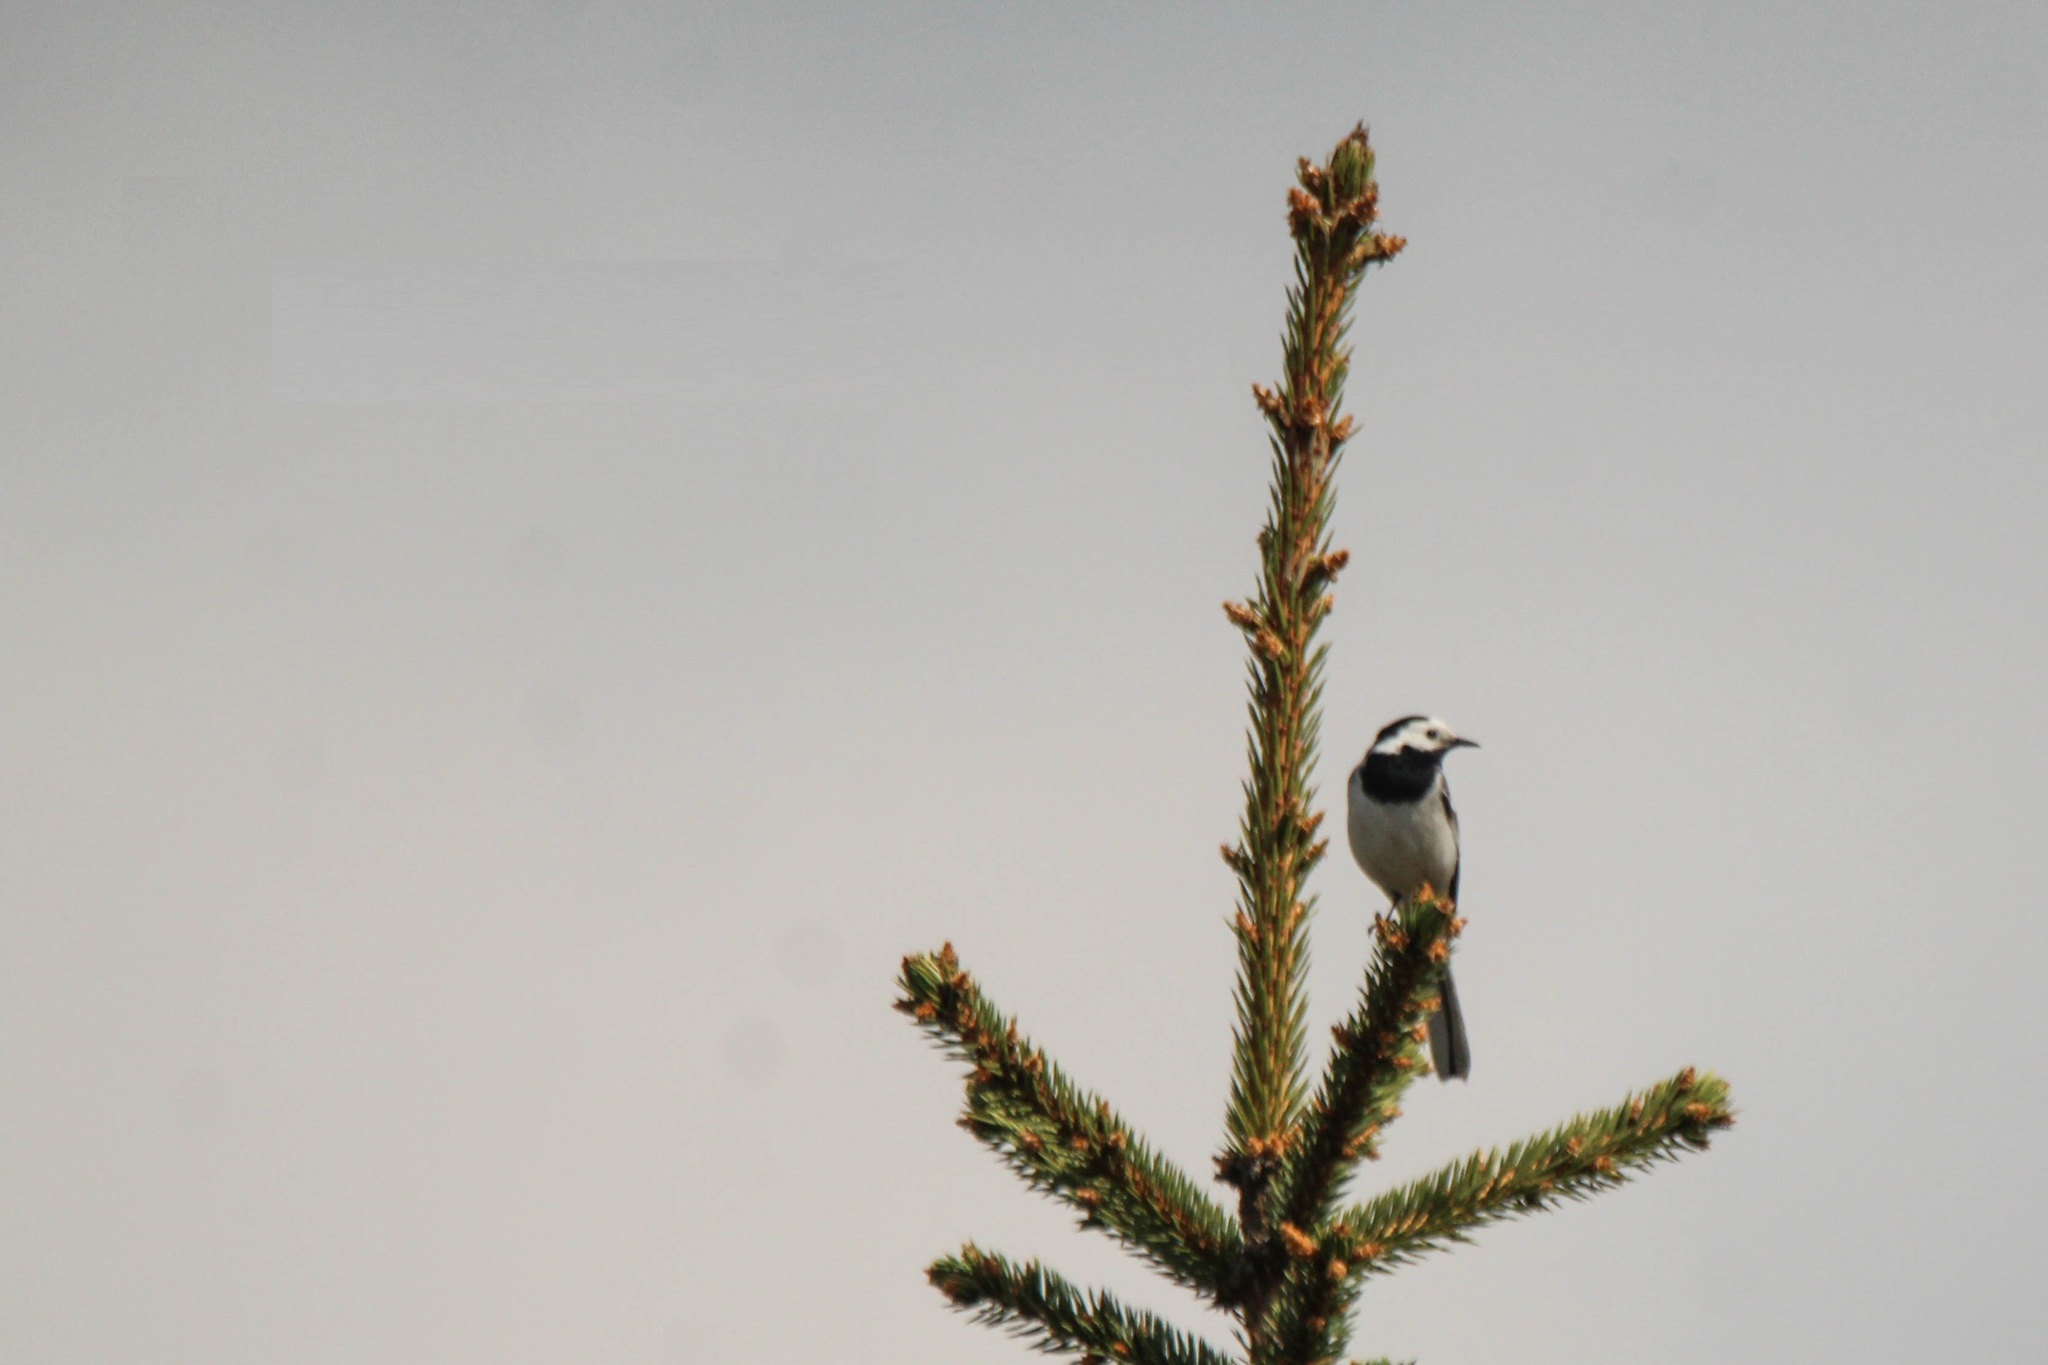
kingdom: Animalia
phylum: Chordata
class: Aves
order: Passeriformes
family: Motacillidae
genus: Motacilla
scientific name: Motacilla alba
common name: White wagtail
